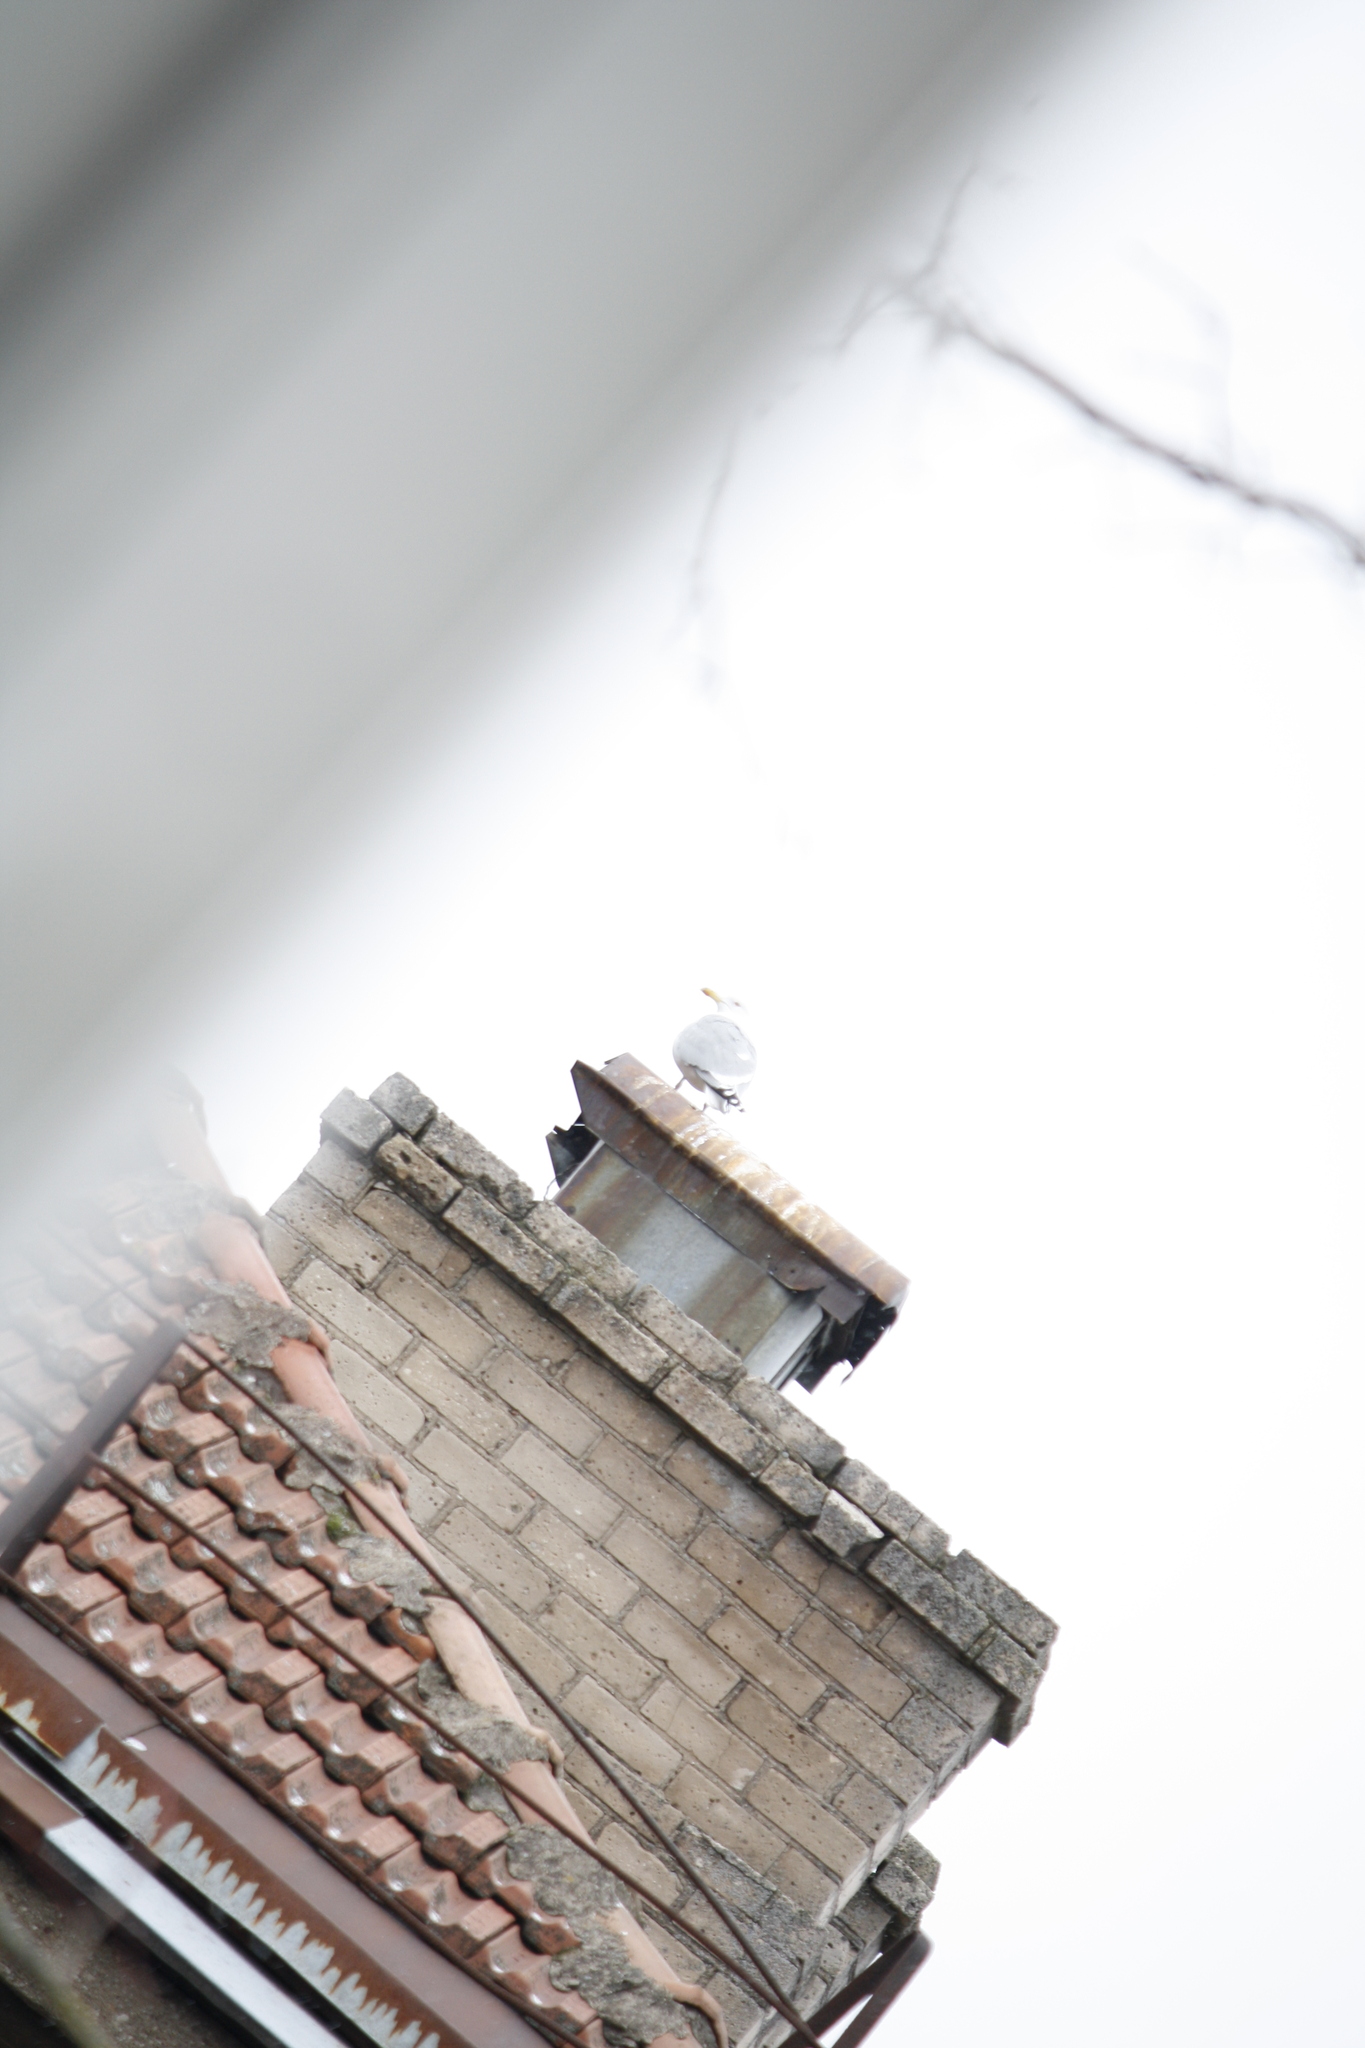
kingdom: Animalia
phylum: Chordata
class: Aves
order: Charadriiformes
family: Laridae
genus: Larus
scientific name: Larus argentatus
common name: Herring gull
